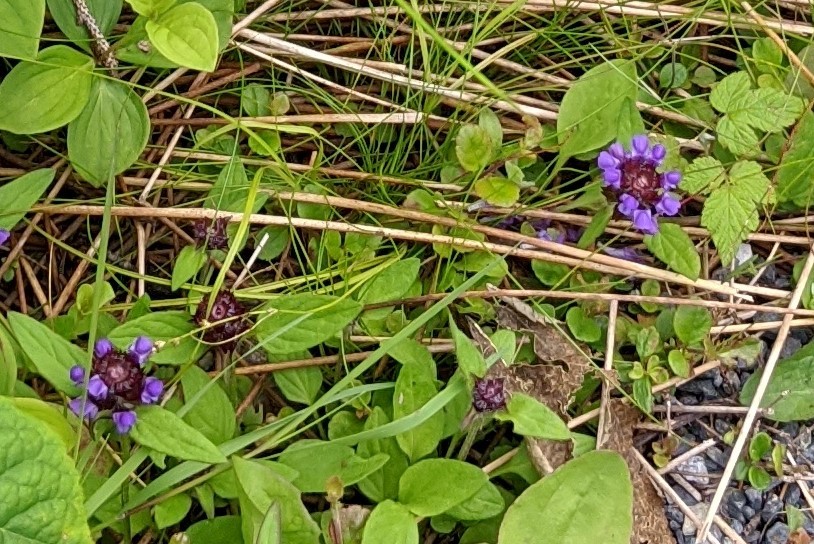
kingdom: Plantae
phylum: Tracheophyta
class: Magnoliopsida
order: Lamiales
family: Lamiaceae
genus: Prunella
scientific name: Prunella vulgaris
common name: Heal-all
